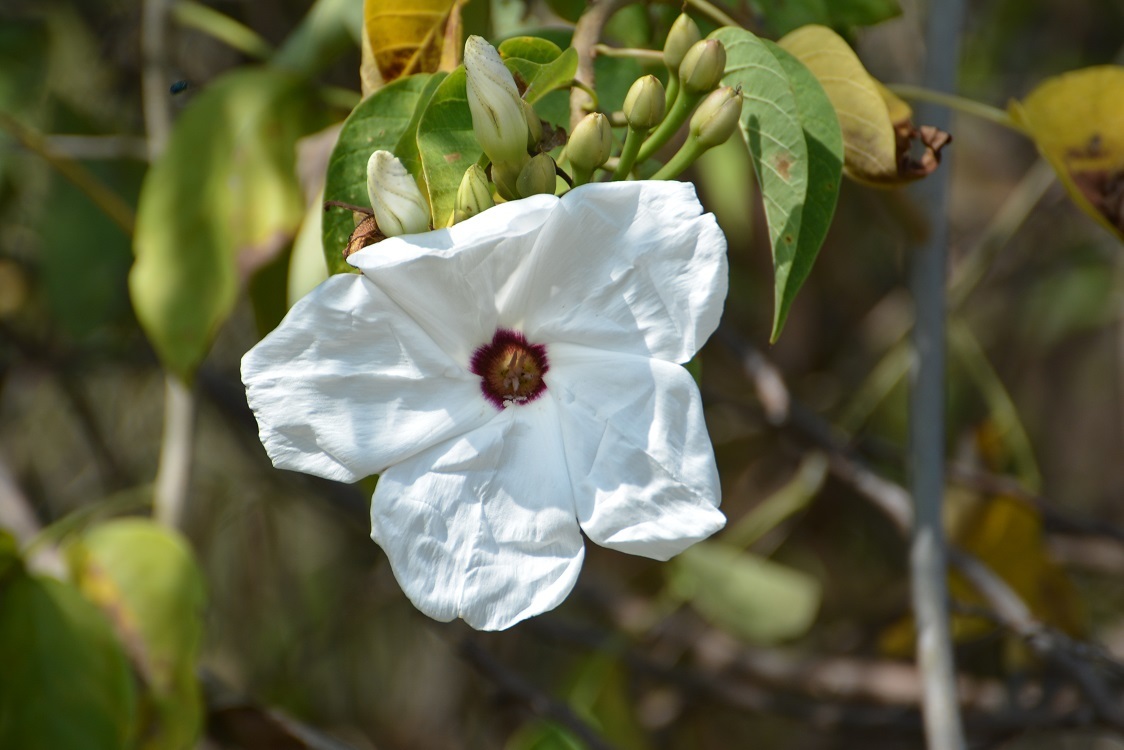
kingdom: Plantae
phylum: Tracheophyta
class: Magnoliopsida
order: Solanales
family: Convolvulaceae
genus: Ipomoea
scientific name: Ipomoea pauciflora
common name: Tree morningglory
